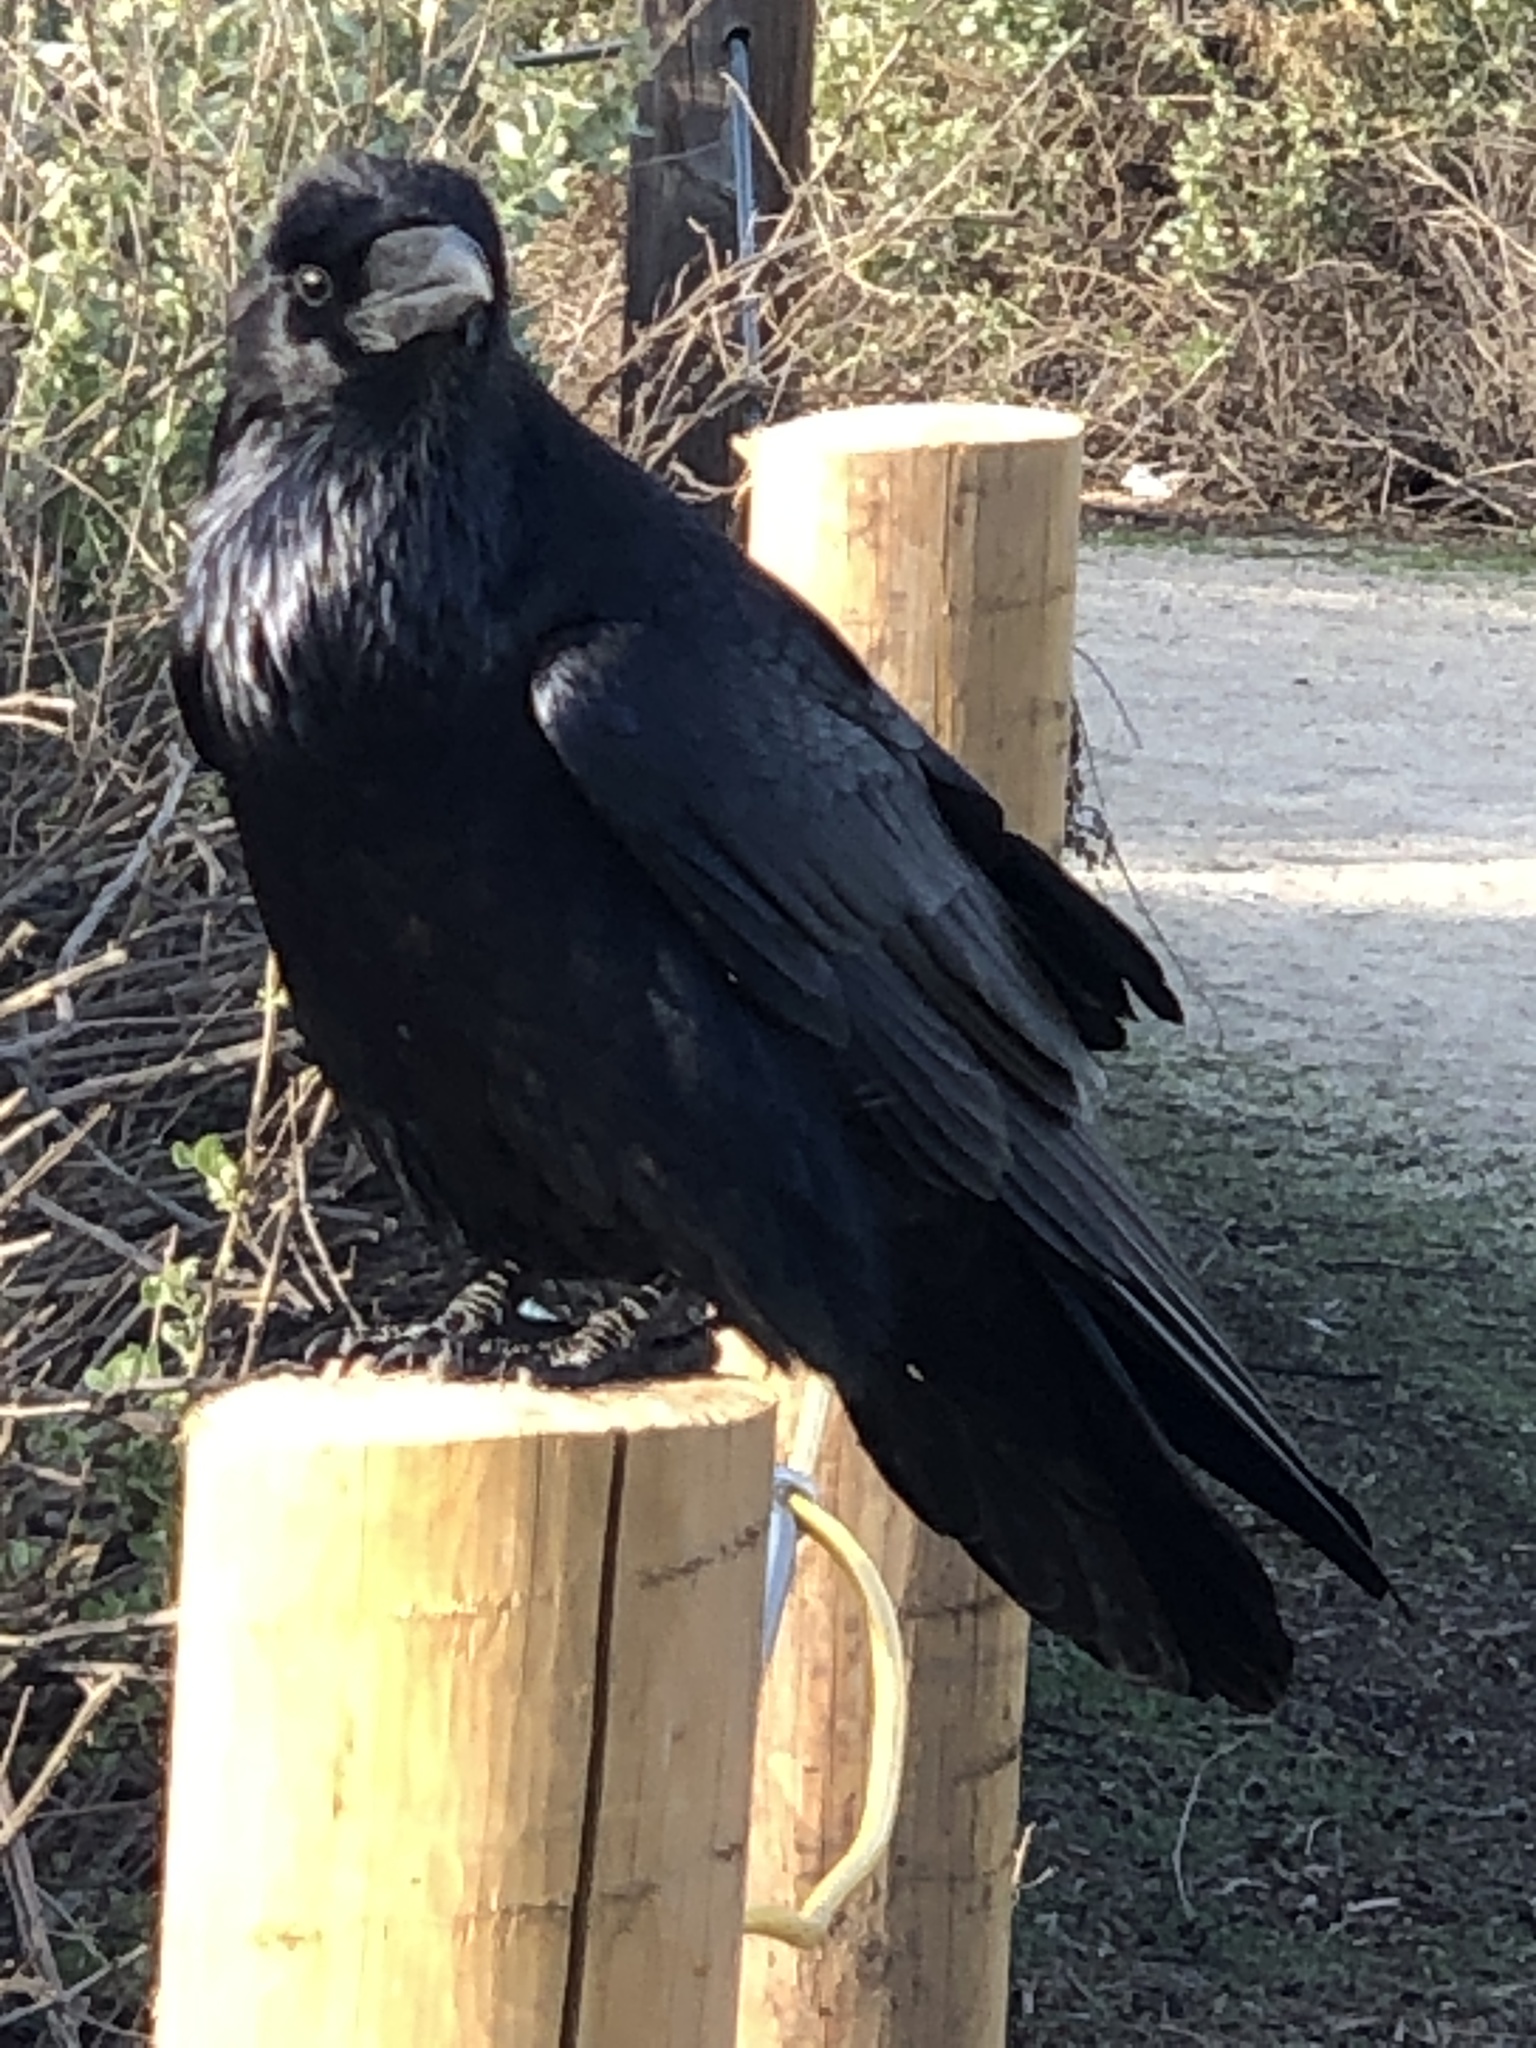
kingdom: Animalia
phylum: Chordata
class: Aves
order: Passeriformes
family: Corvidae
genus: Corvus
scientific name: Corvus corax
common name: Common raven
